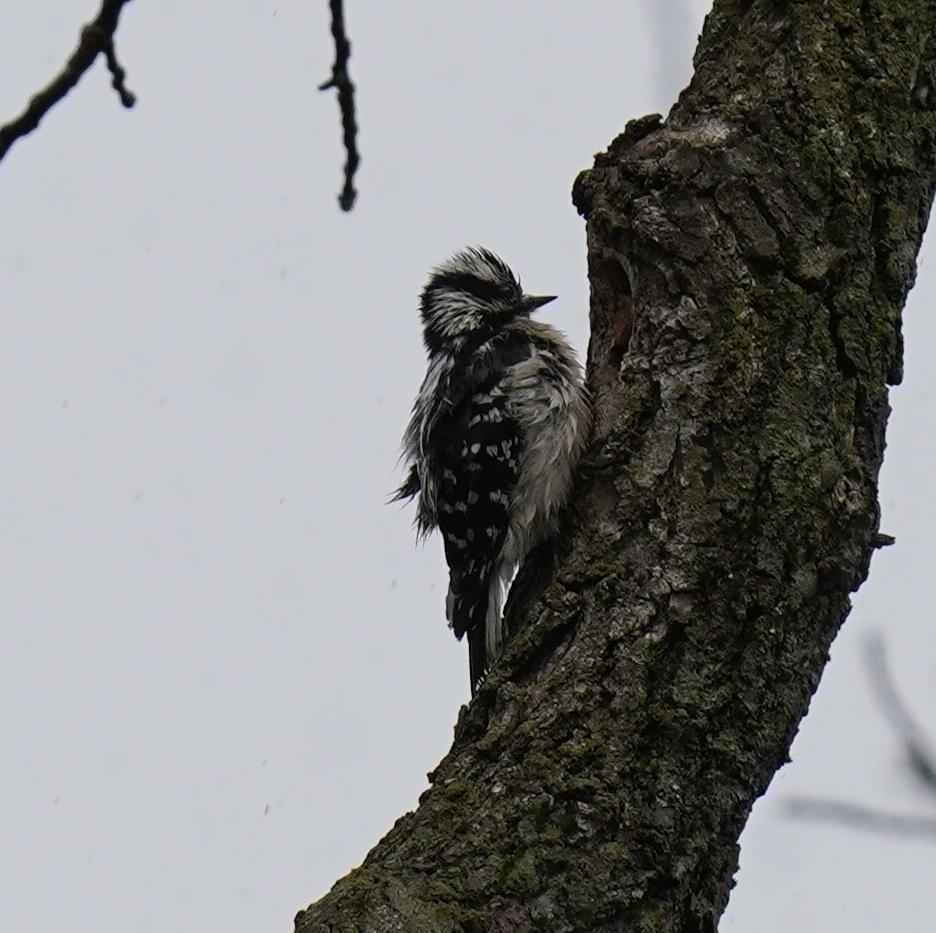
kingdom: Animalia
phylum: Chordata
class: Aves
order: Piciformes
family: Picidae
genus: Dryobates
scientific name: Dryobates pubescens
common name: Downy woodpecker
